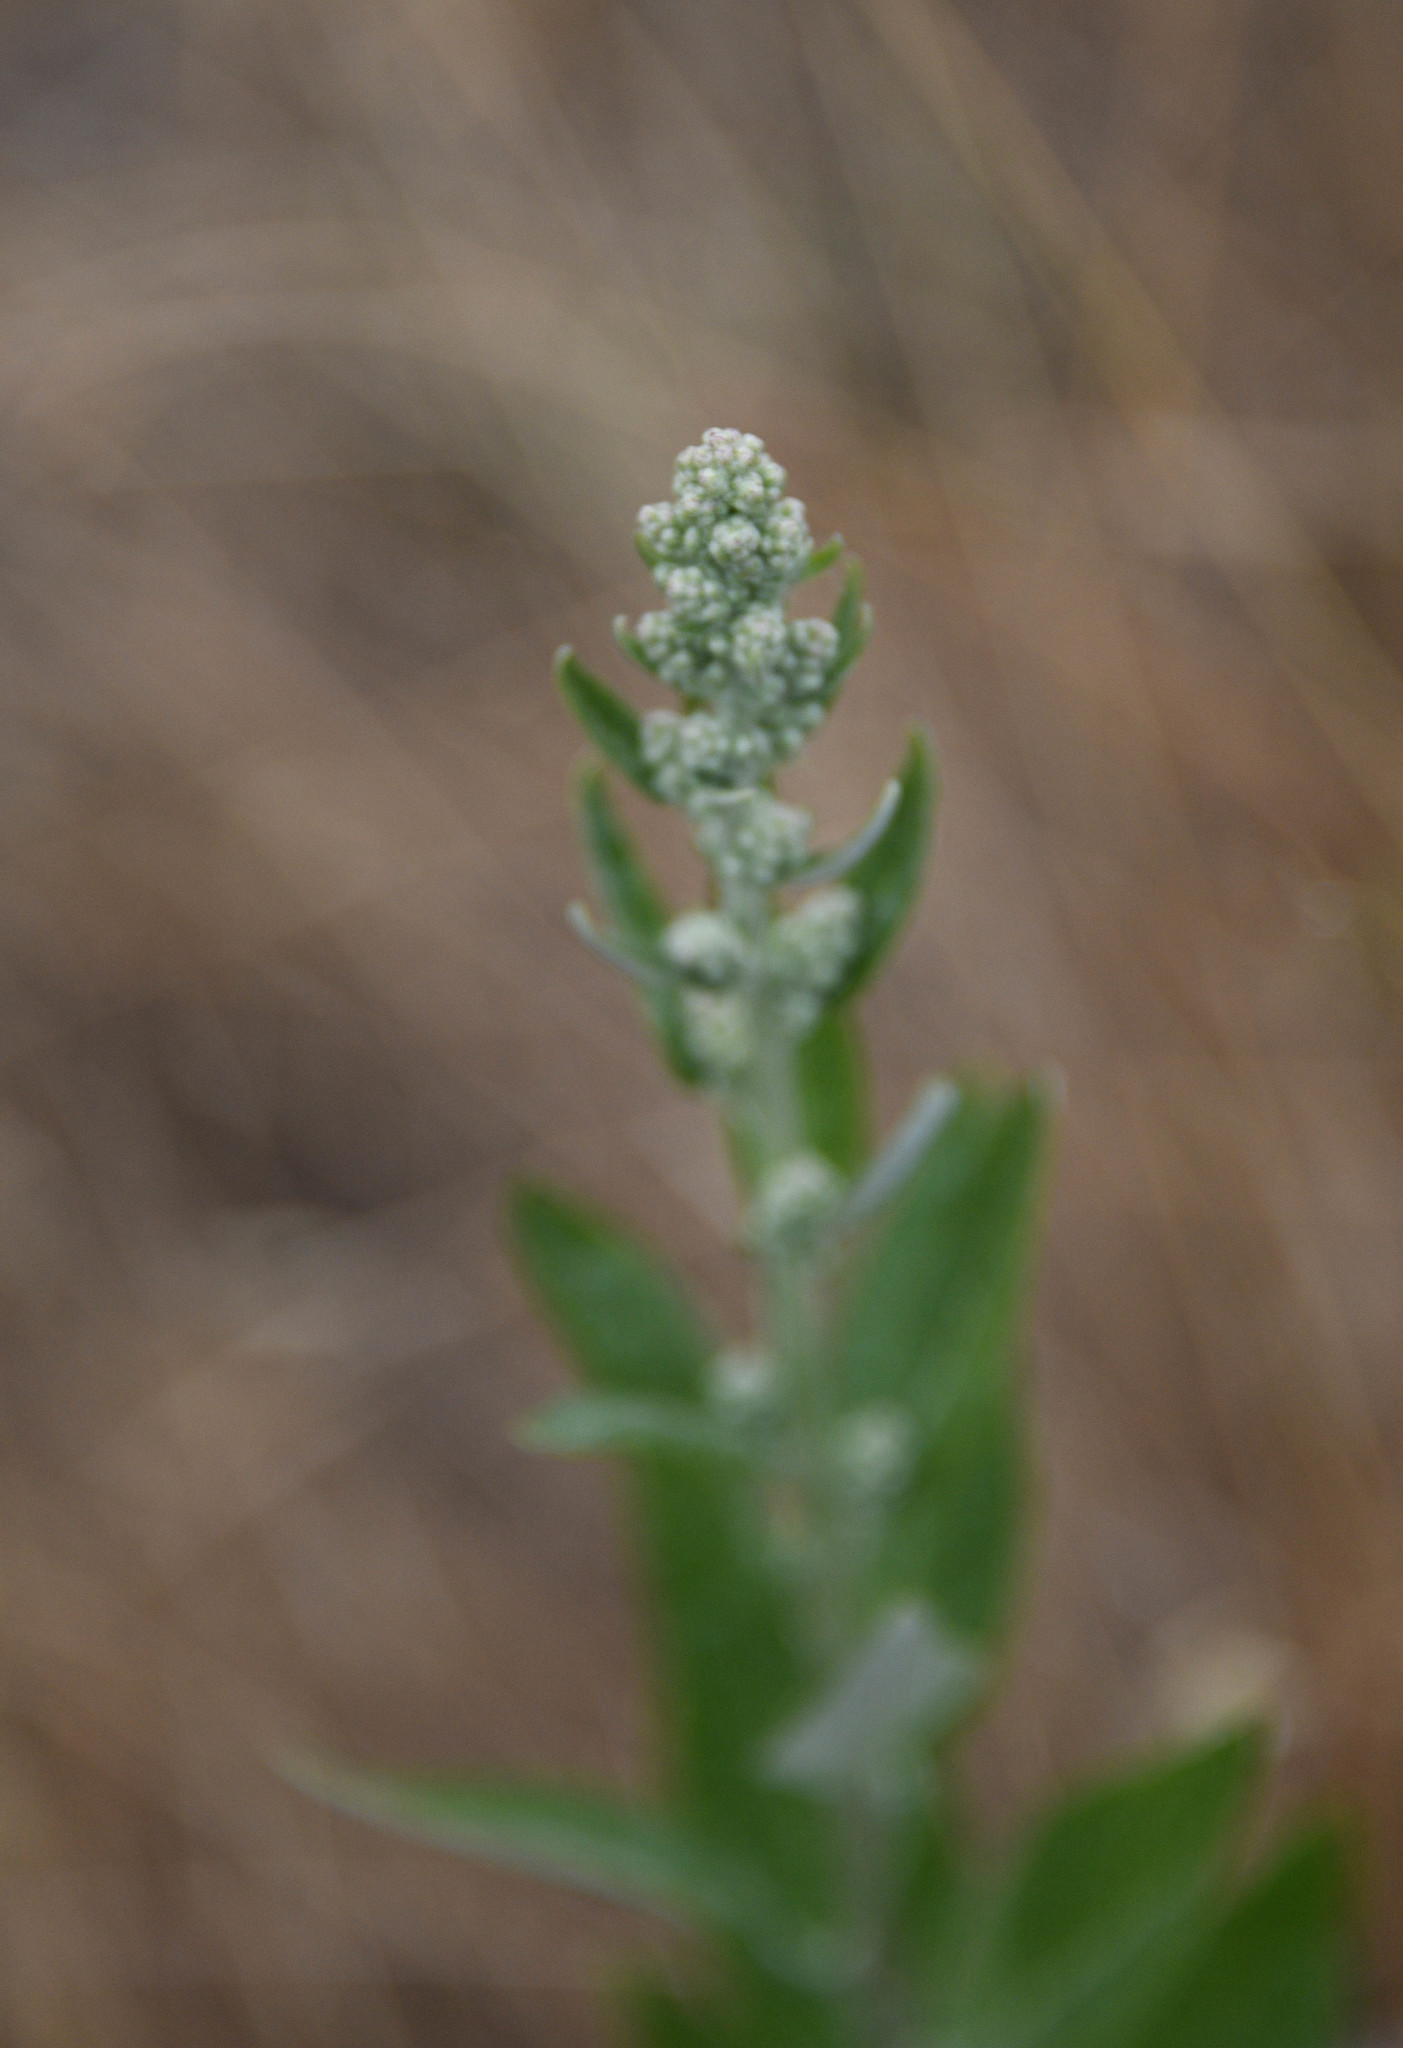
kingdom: Plantae
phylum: Tracheophyta
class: Magnoliopsida
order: Asterales
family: Asteraceae
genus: Artemisia
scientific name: Artemisia douglasiana
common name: Northwest mugwort
